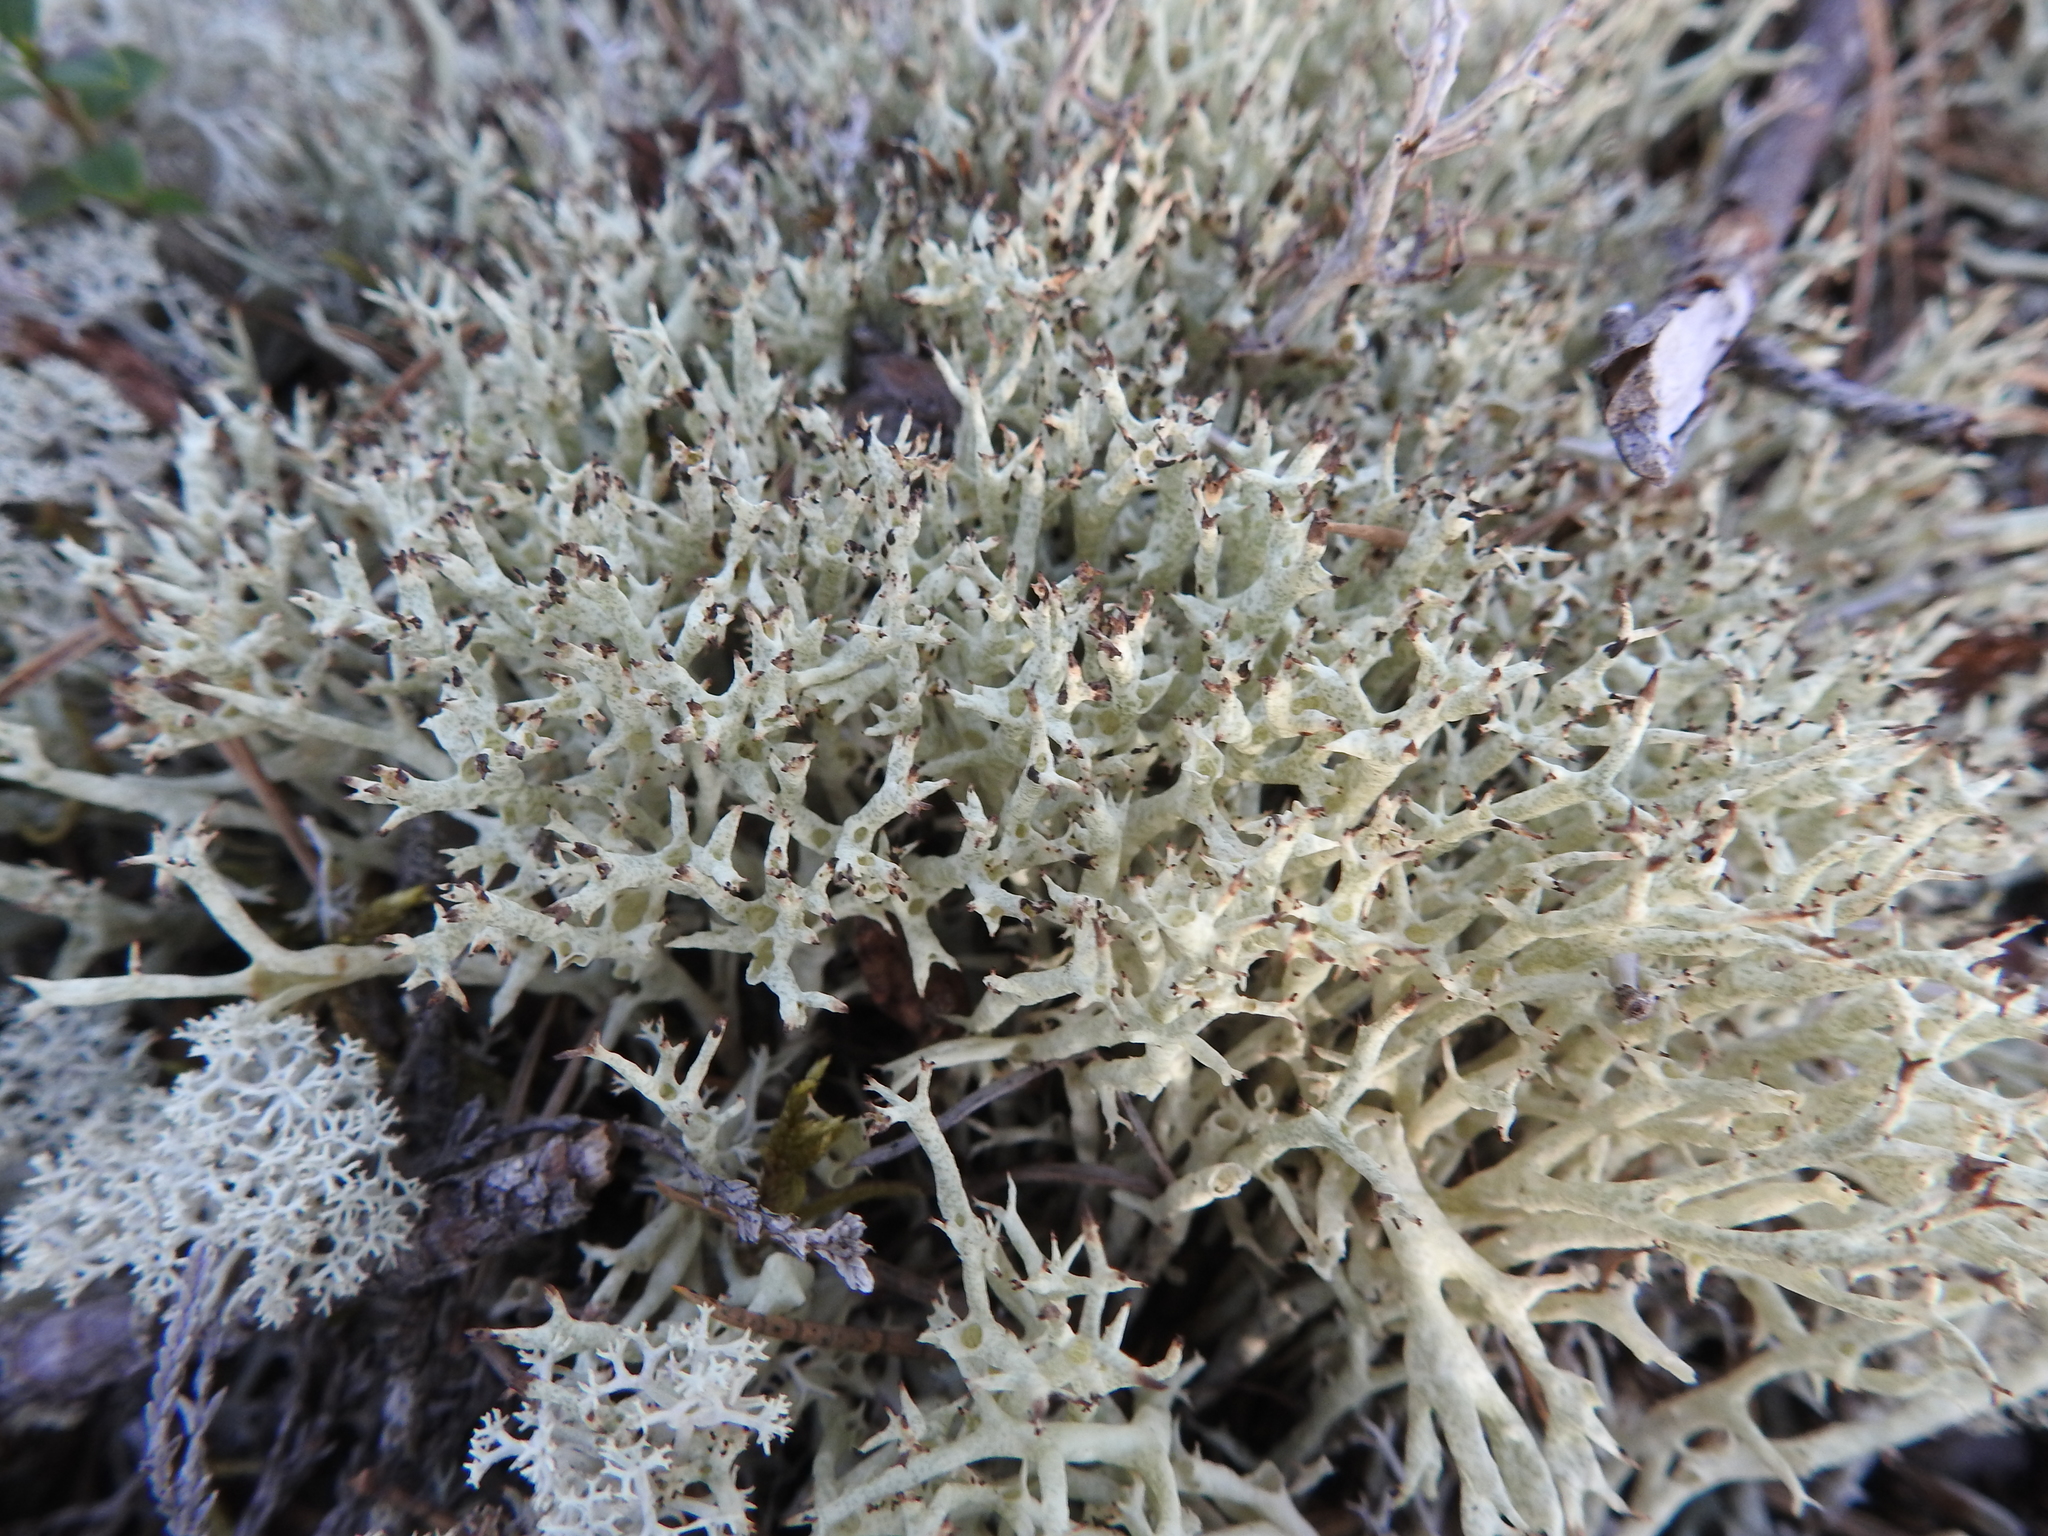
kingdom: Fungi
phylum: Ascomycota
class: Lecanoromycetes
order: Lecanorales
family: Cladoniaceae
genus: Cladonia
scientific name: Cladonia uncialis
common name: Thorn lichen
